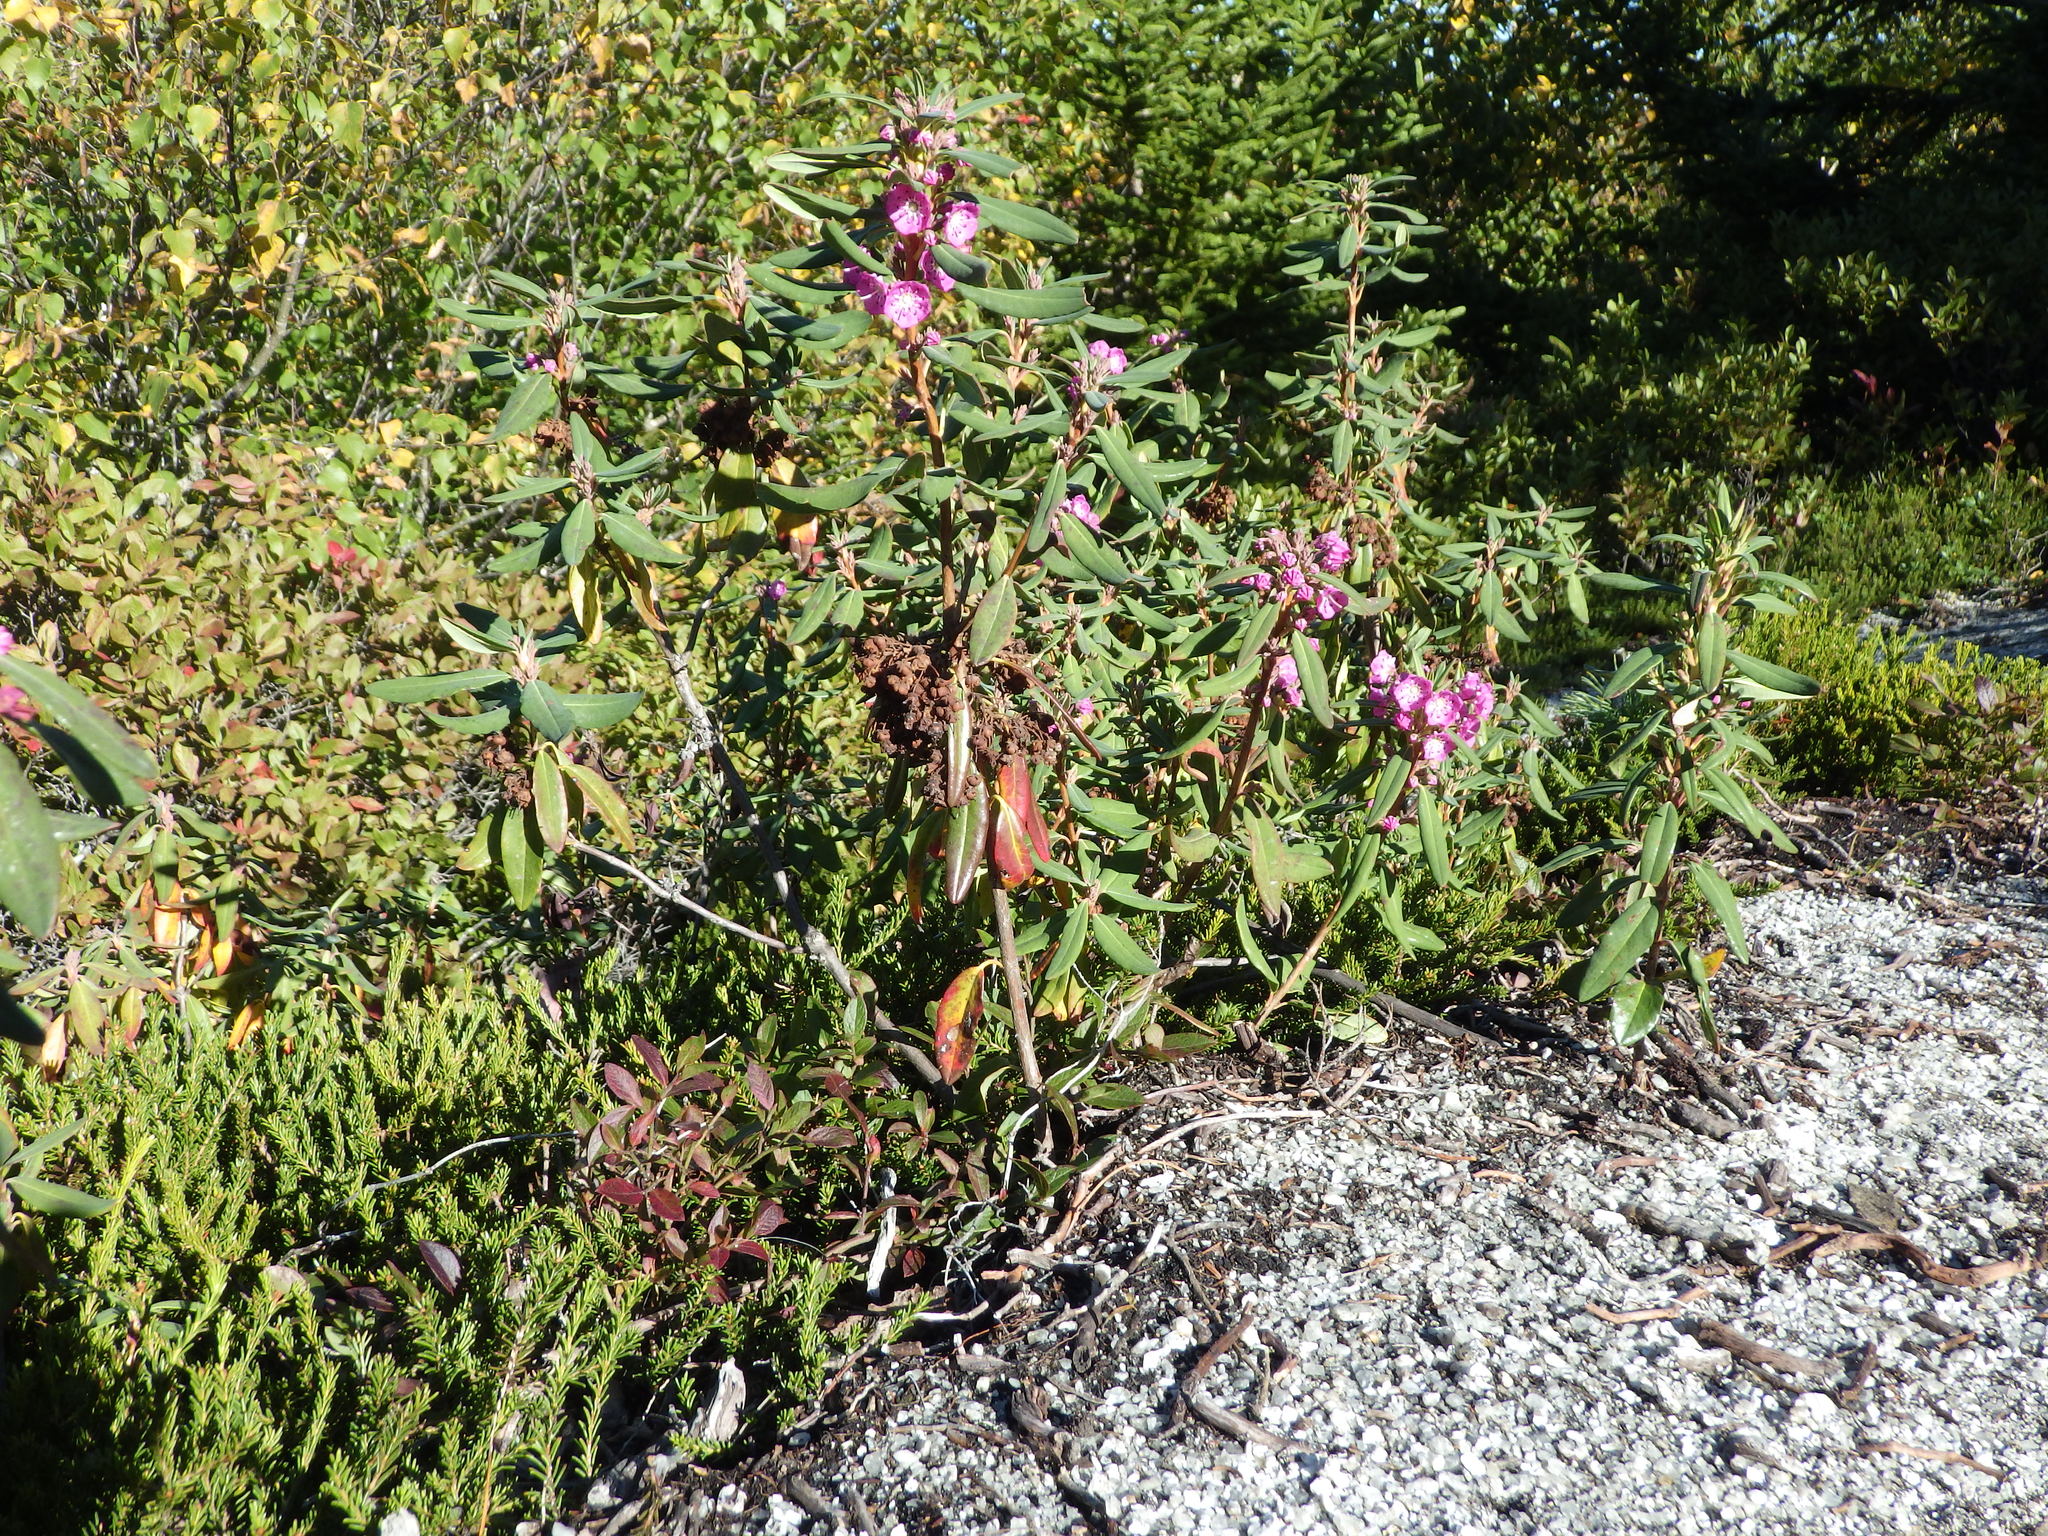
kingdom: Plantae
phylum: Tracheophyta
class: Magnoliopsida
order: Ericales
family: Ericaceae
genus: Kalmia
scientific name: Kalmia angustifolia
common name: Sheep-laurel
